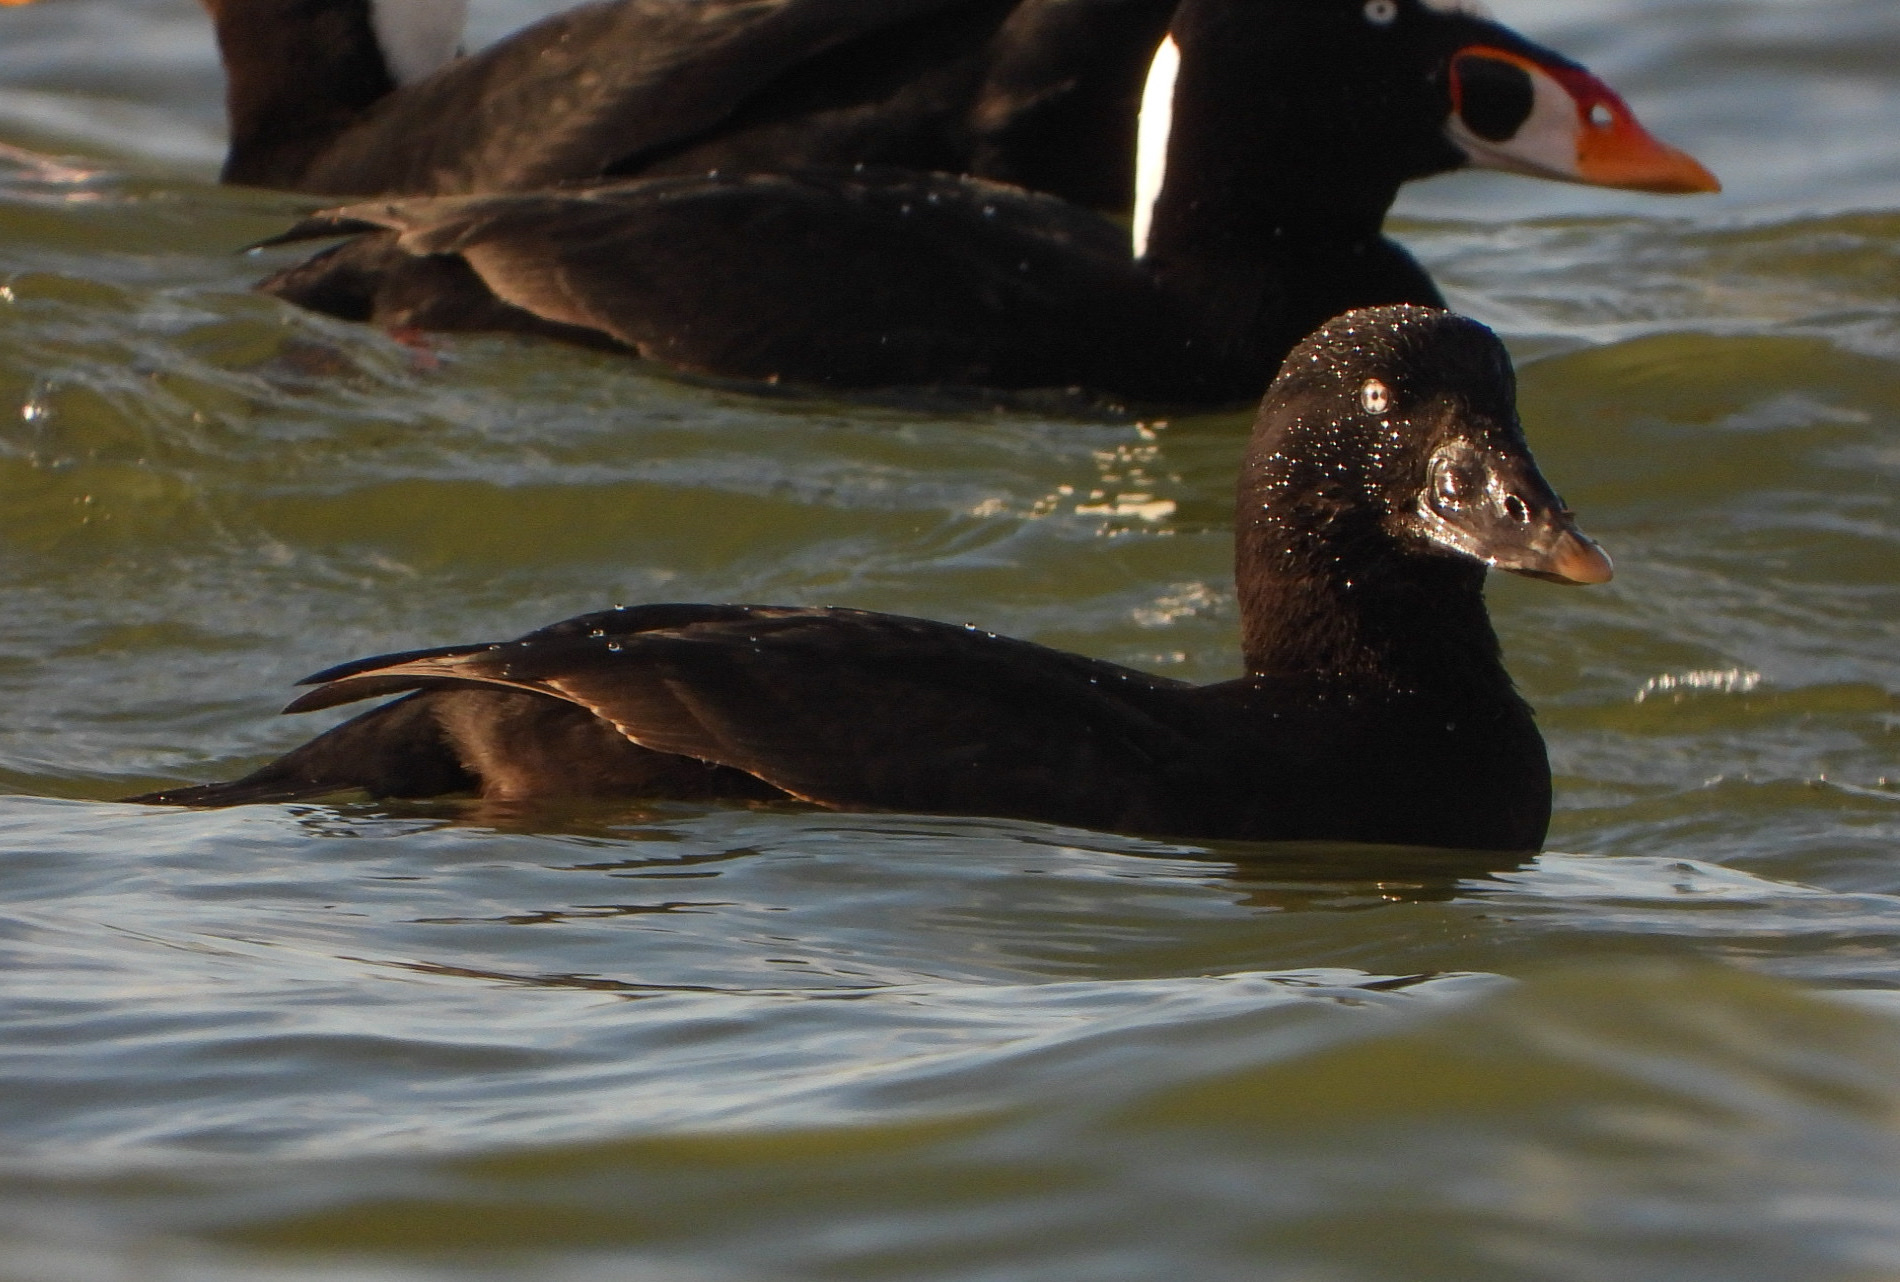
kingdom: Animalia
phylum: Chordata
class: Aves
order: Anseriformes
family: Anatidae
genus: Melanitta
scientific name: Melanitta perspicillata
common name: Surf scoter
